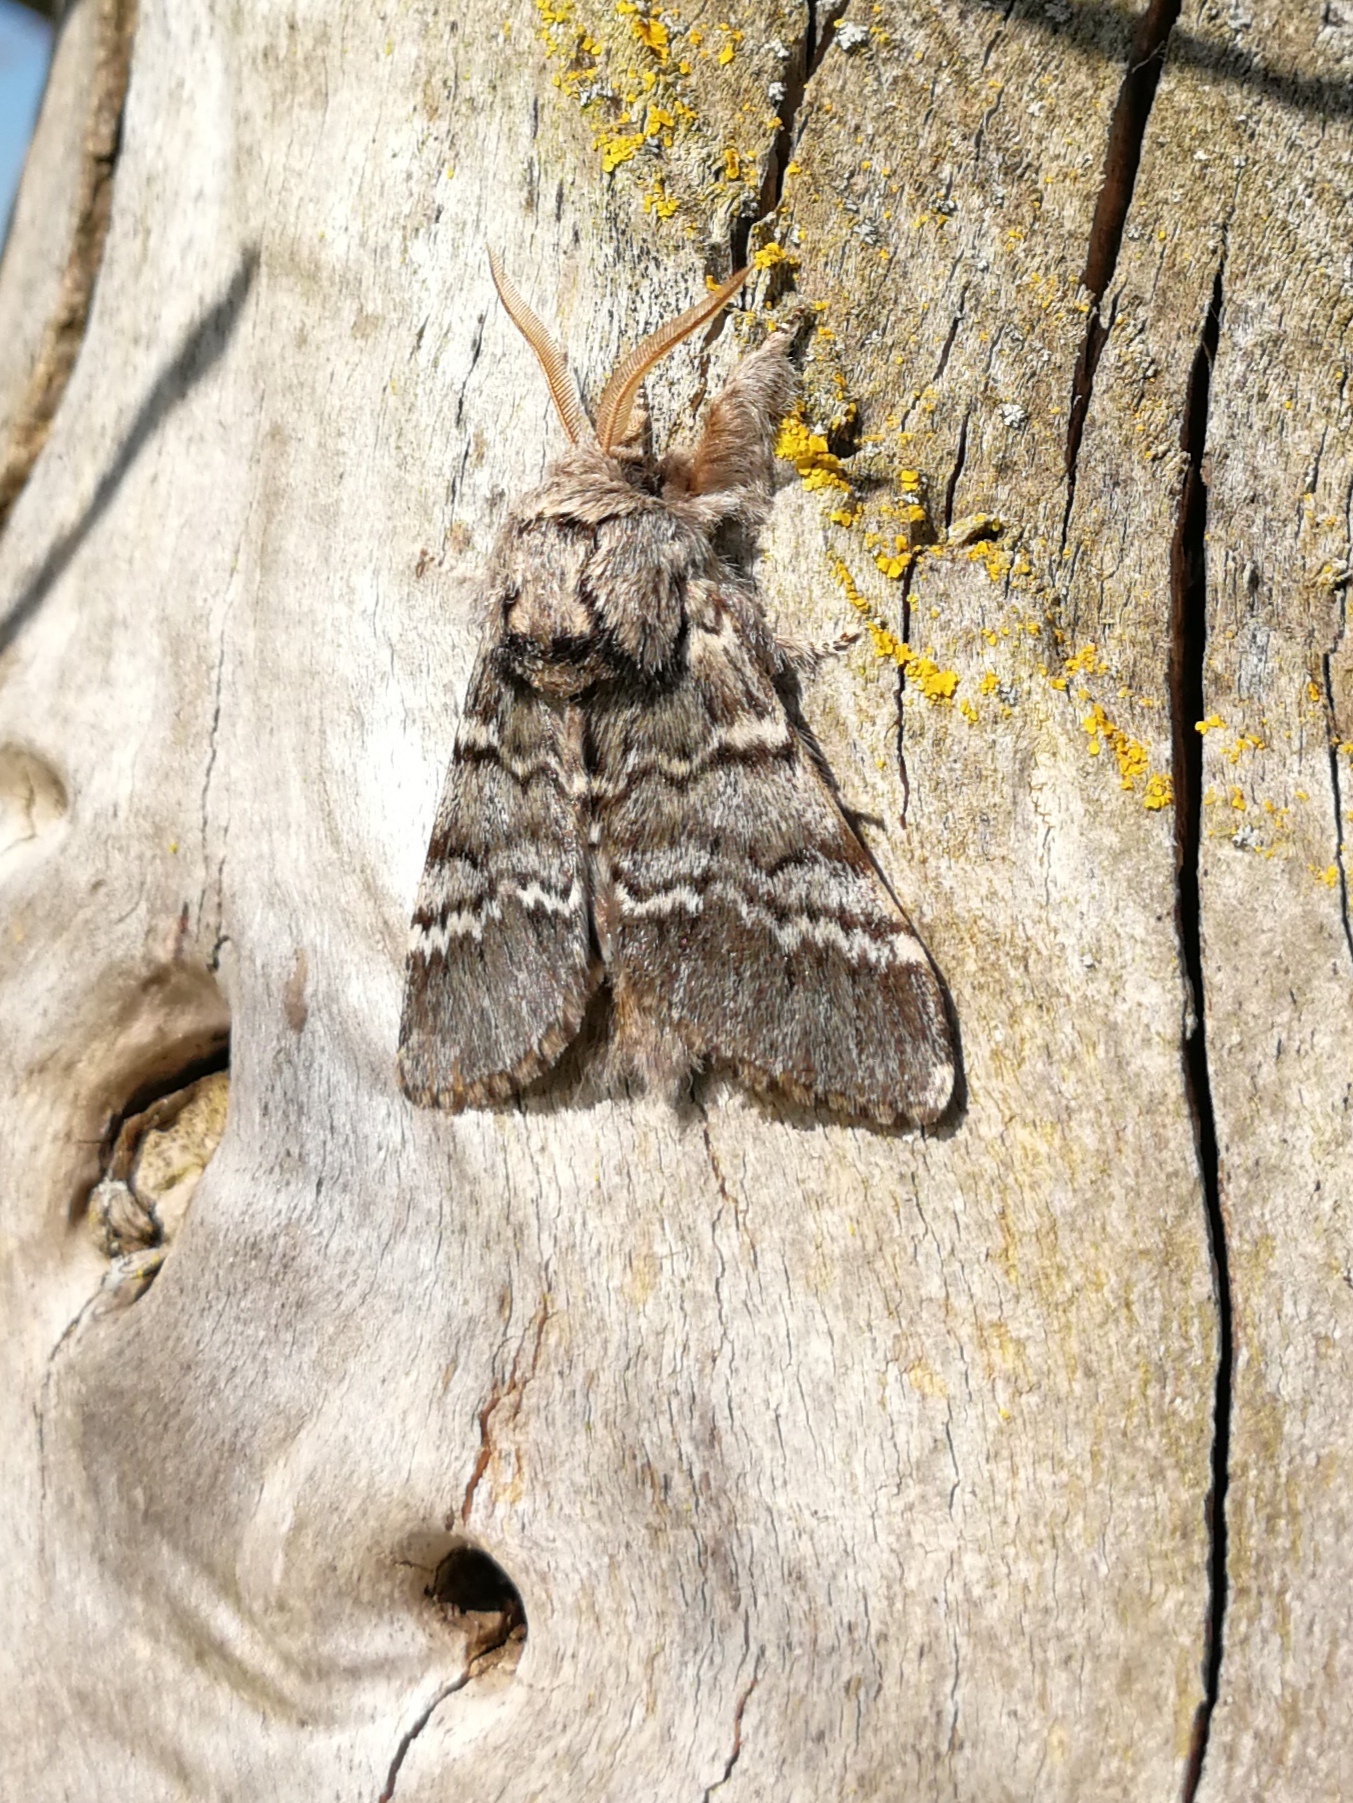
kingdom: Animalia
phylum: Arthropoda
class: Insecta
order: Lepidoptera
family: Notodontidae
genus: Drymonia
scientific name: Drymonia ruficornis
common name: Lunar marbled brown
